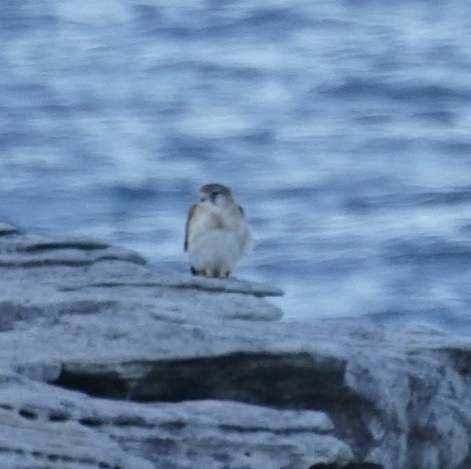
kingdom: Animalia
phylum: Chordata
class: Aves
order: Falconiformes
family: Falconidae
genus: Falco
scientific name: Falco cenchroides
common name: Nankeen kestrel
